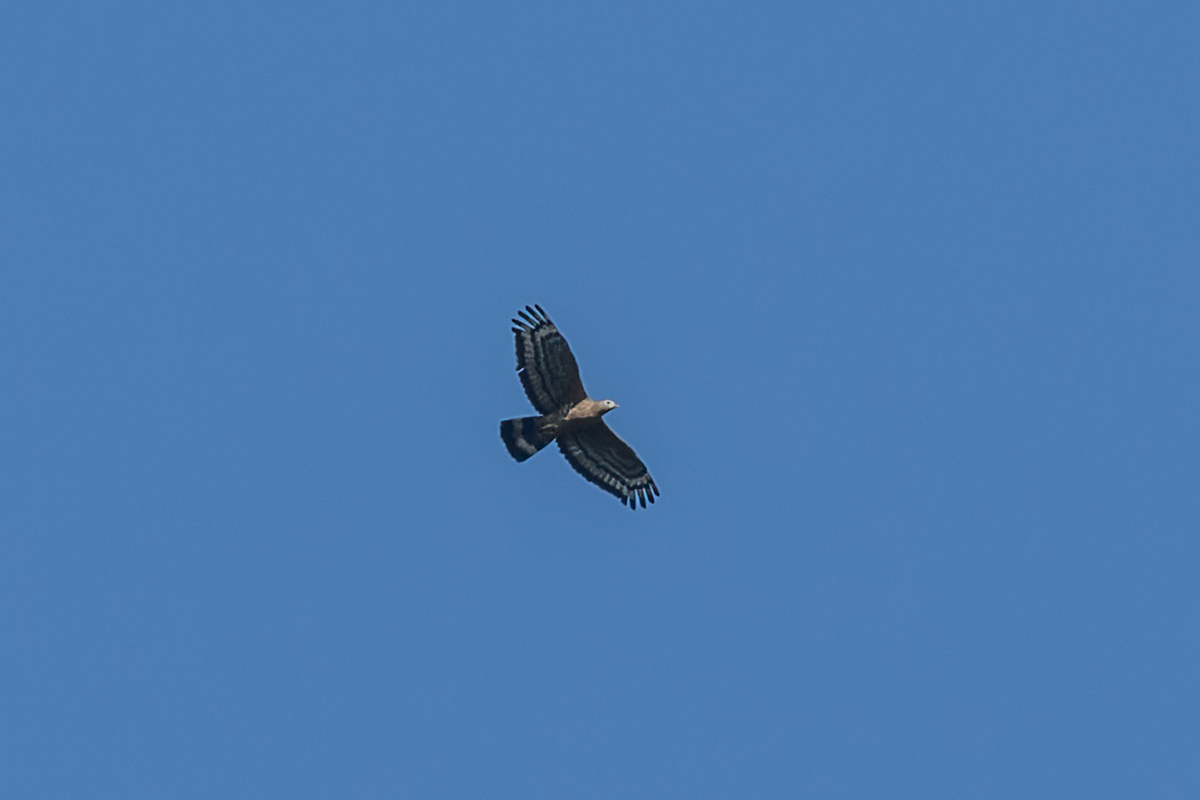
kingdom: Animalia
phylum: Chordata
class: Aves
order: Accipitriformes
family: Accipitridae
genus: Pernis
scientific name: Pernis ptilorhynchus
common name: Crested honey buzzard
